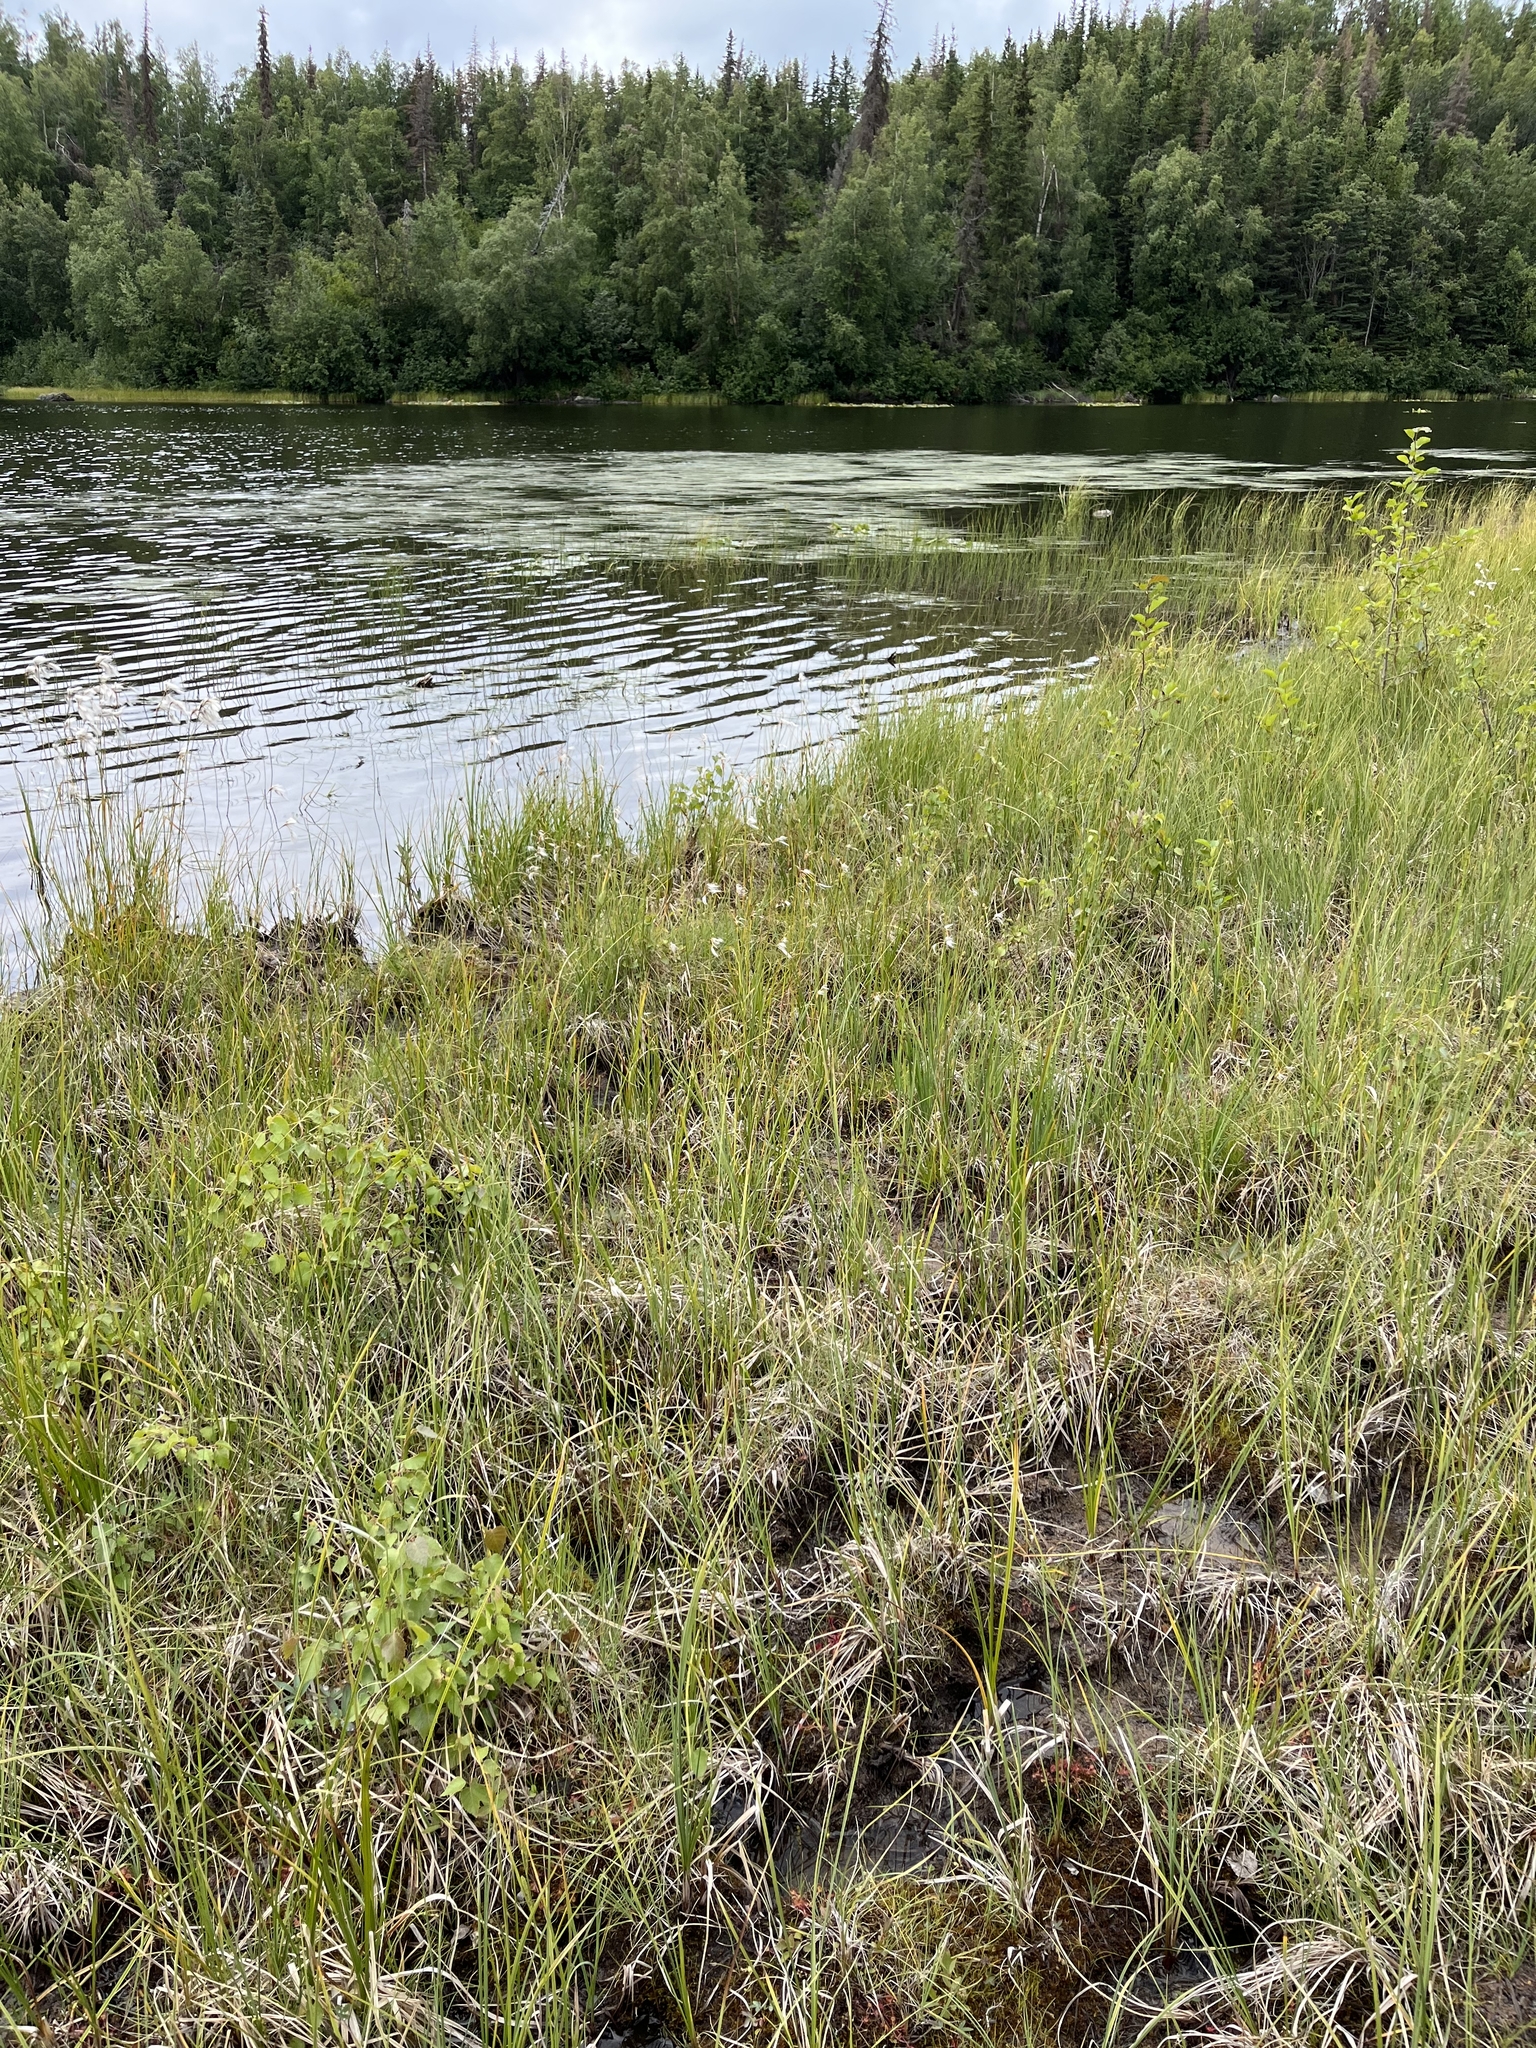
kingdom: Plantae
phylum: Tracheophyta
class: Liliopsida
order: Poales
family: Cyperaceae
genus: Eriophorum
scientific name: Eriophorum angustifolium
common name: Common cottongrass
